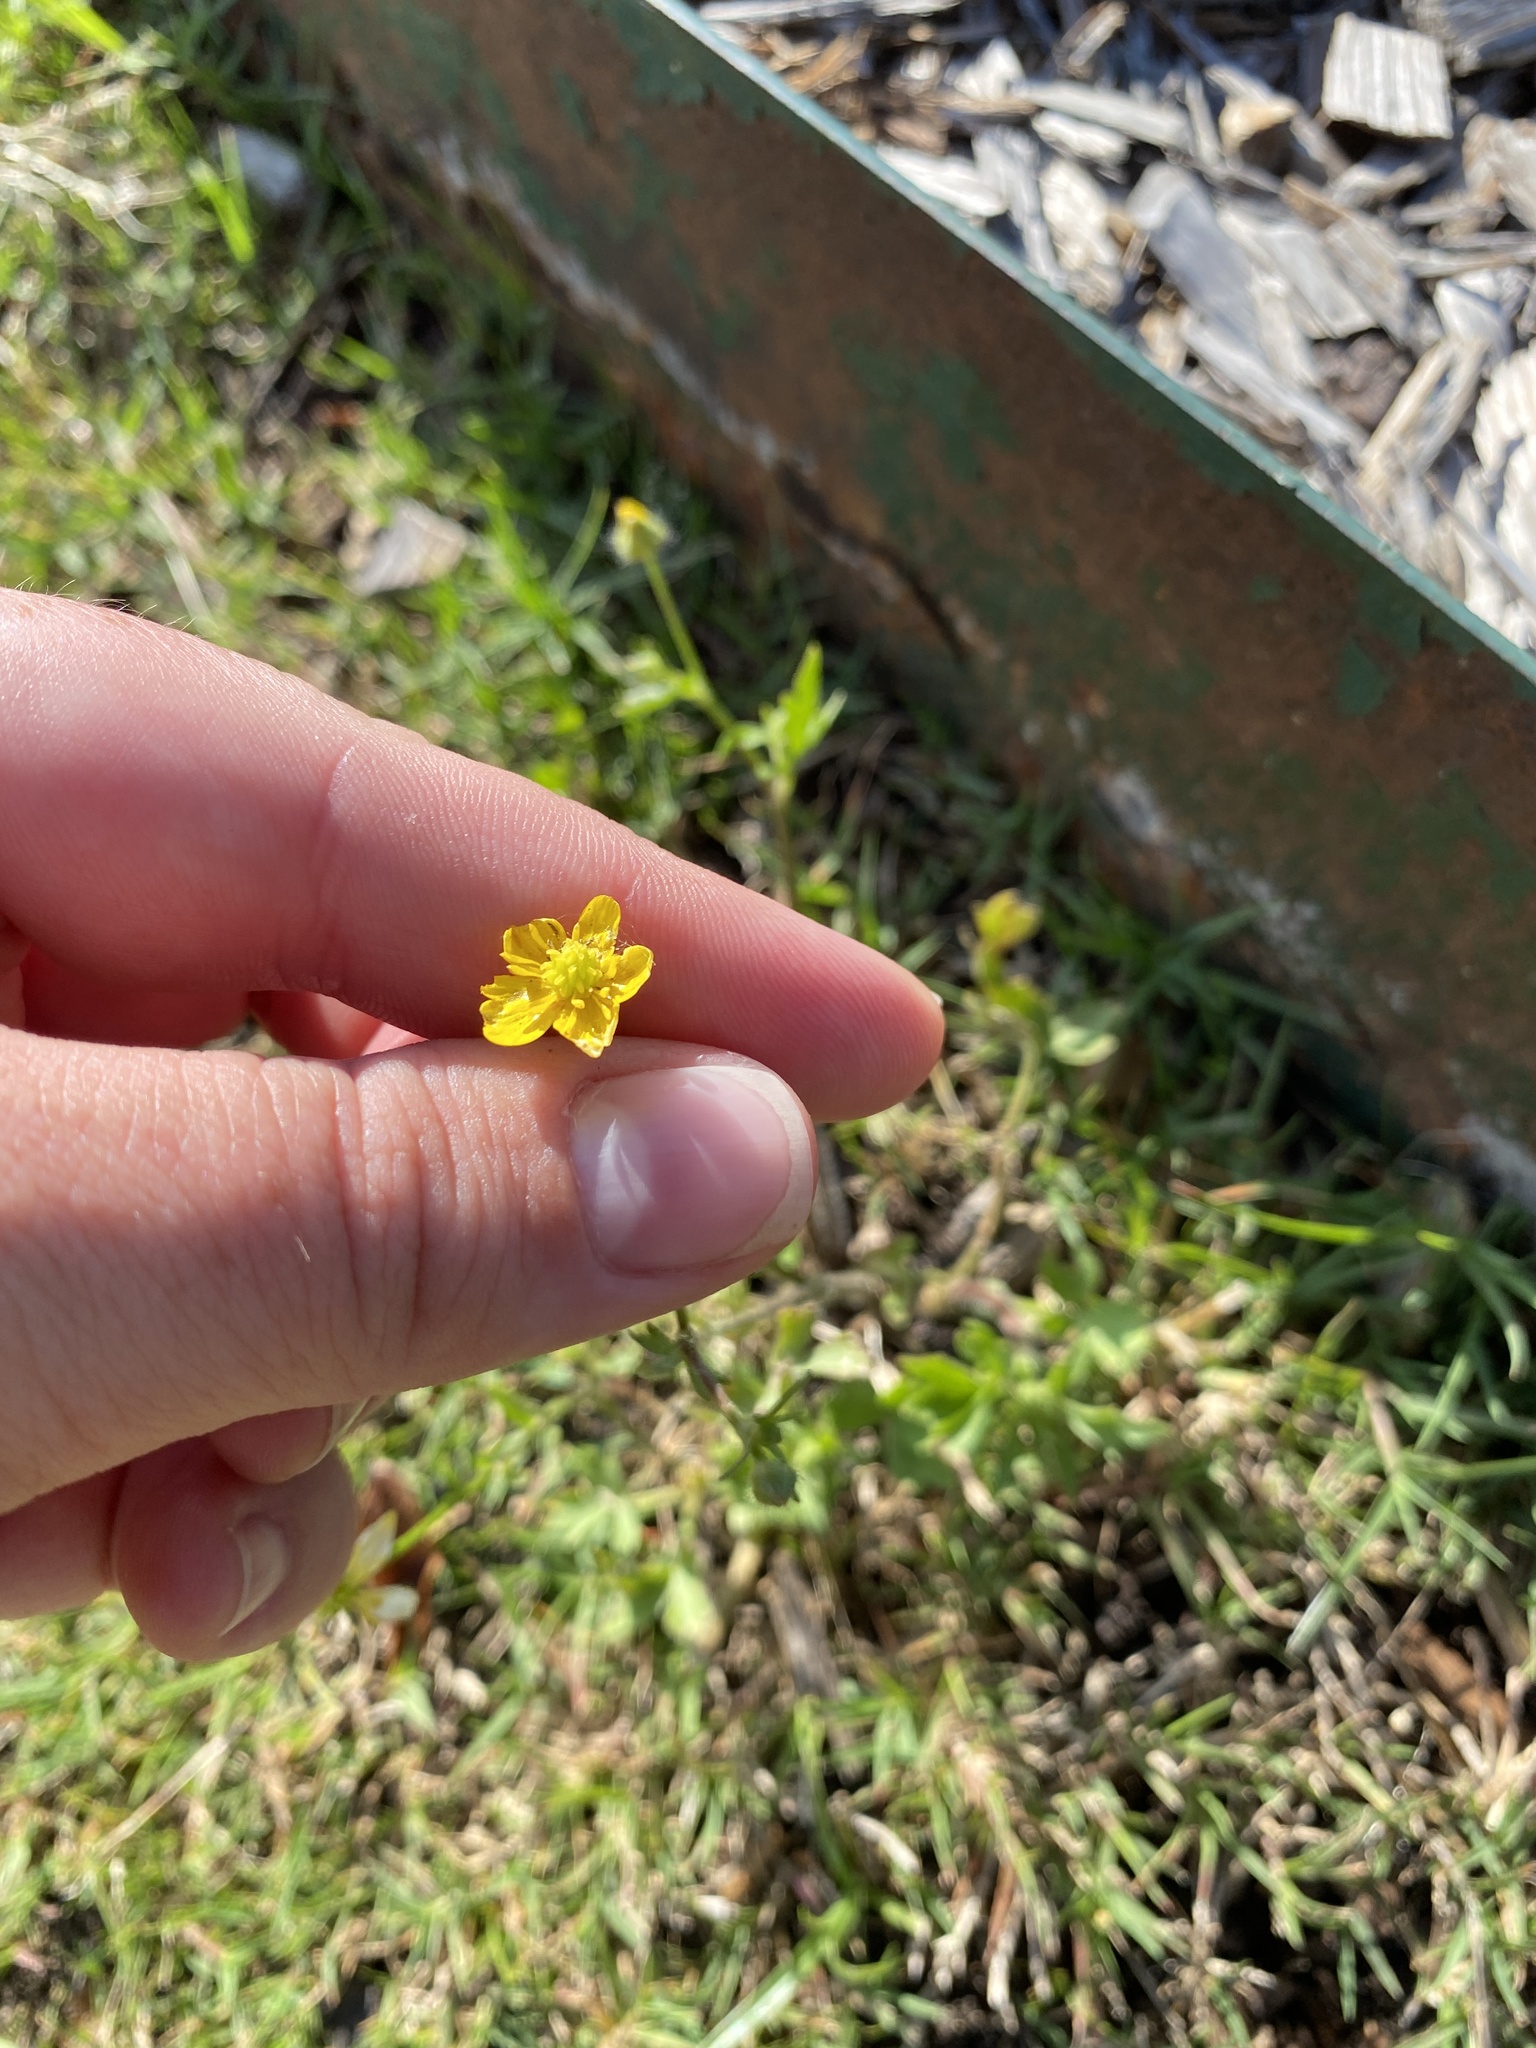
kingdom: Plantae
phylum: Tracheophyta
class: Magnoliopsida
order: Ranunculales
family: Ranunculaceae
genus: Ranunculus
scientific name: Ranunculus sardous
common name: Hairy buttercup
